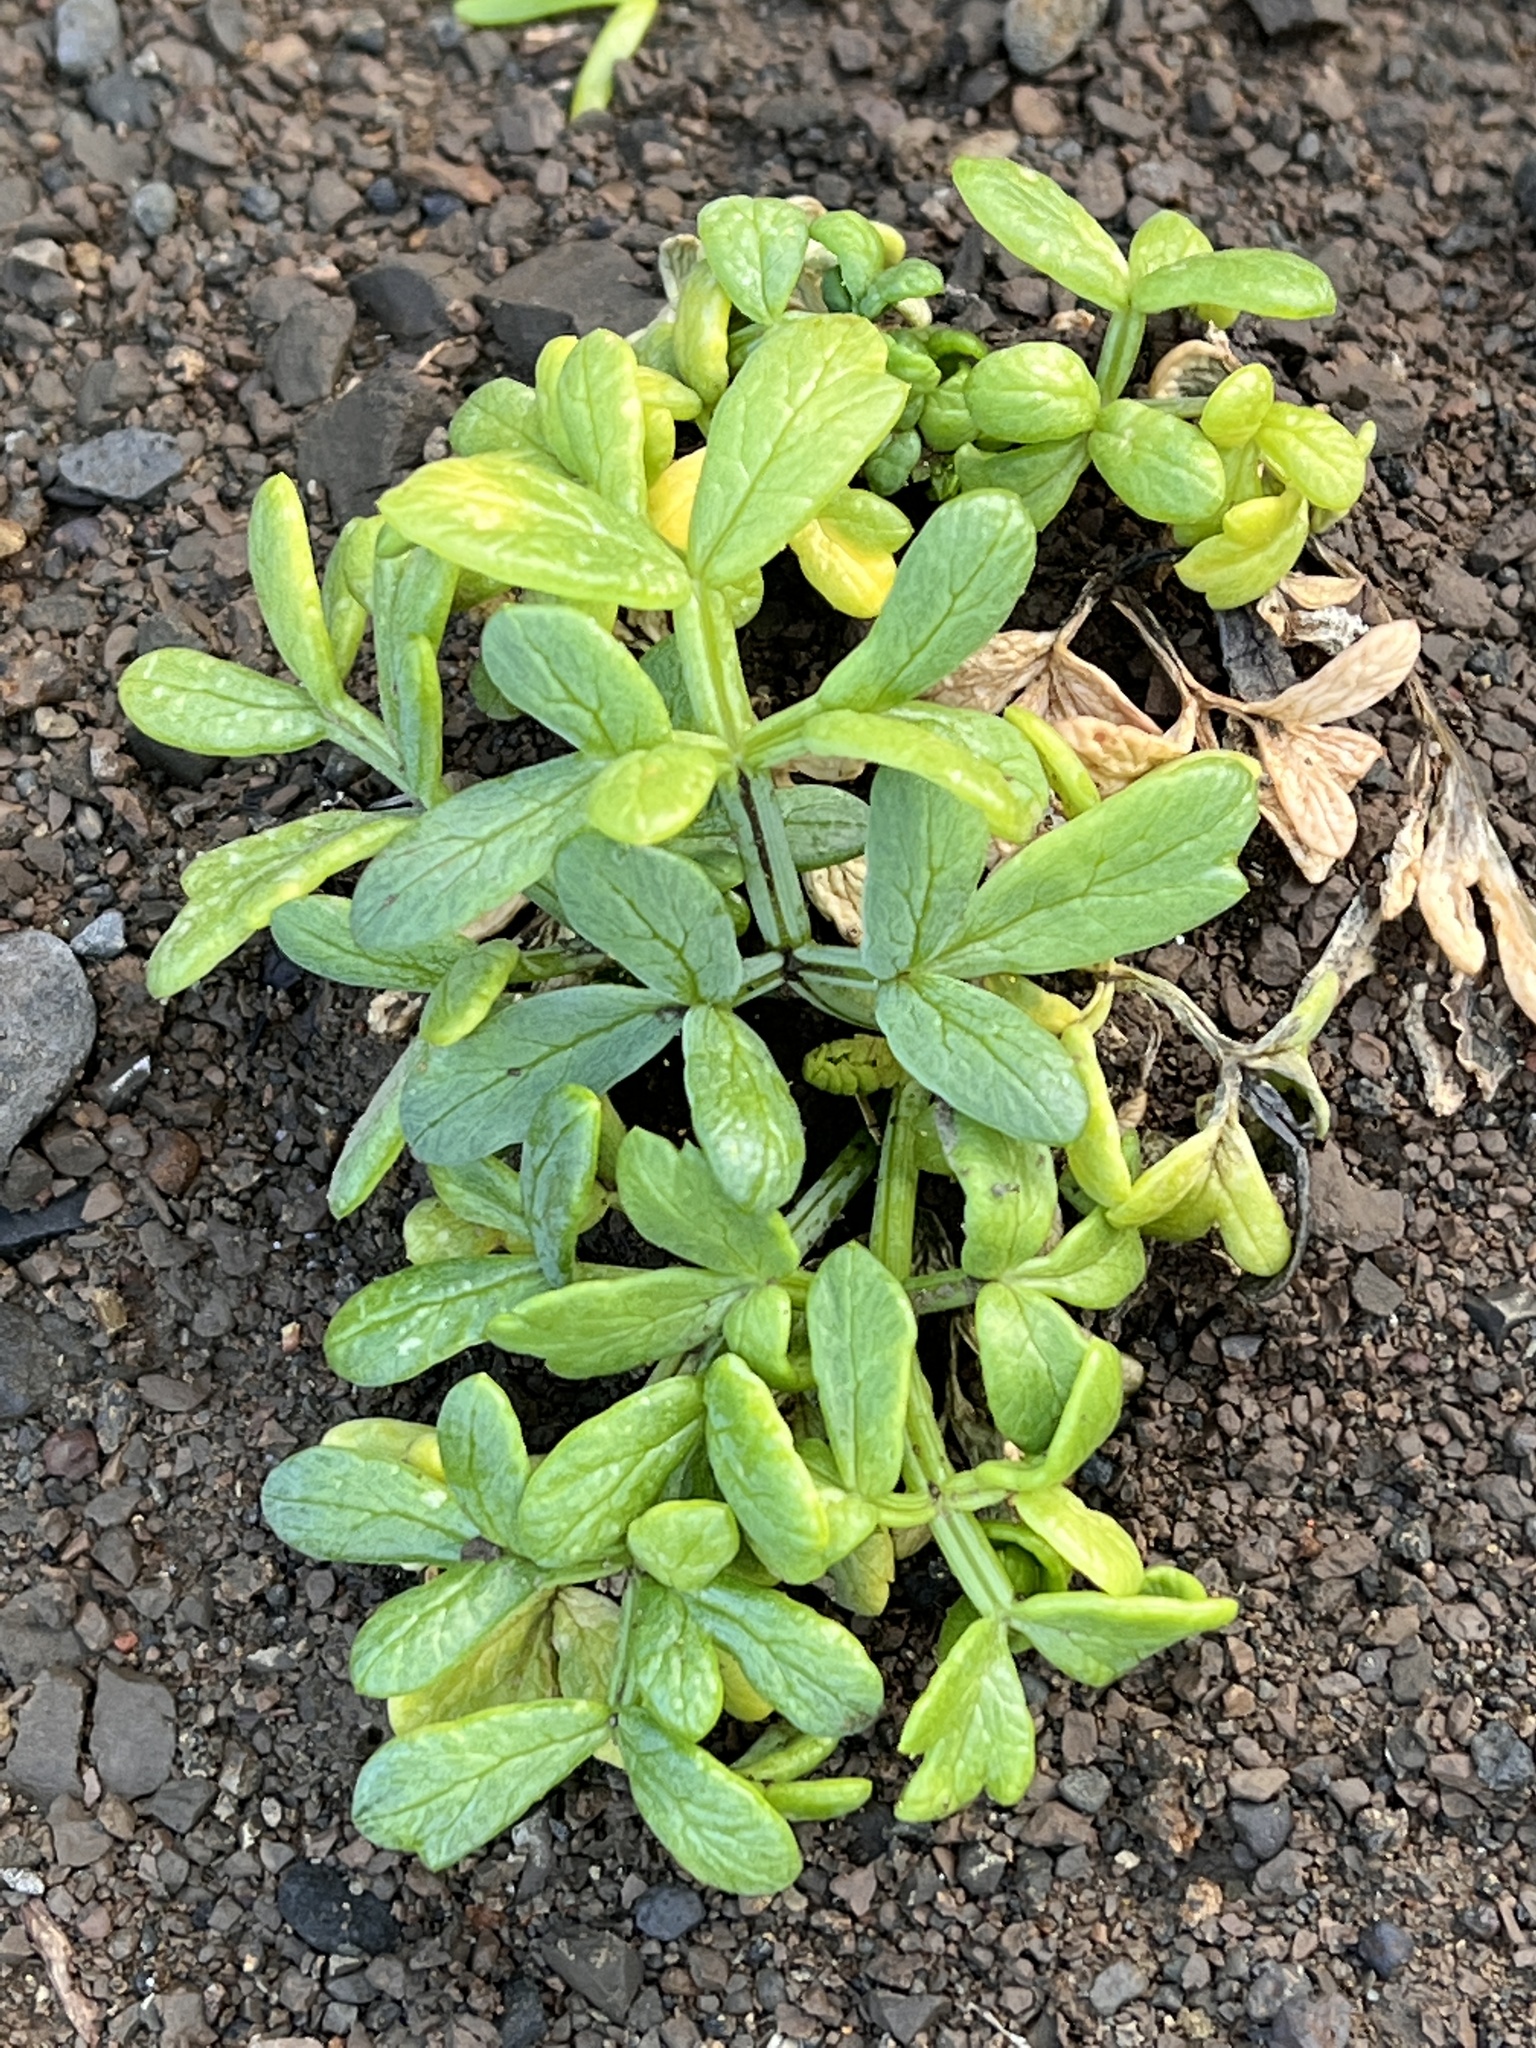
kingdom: Plantae
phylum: Tracheophyta
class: Magnoliopsida
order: Apiales
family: Apiaceae
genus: Crithmum
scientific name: Crithmum maritimum
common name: Rock samphire
